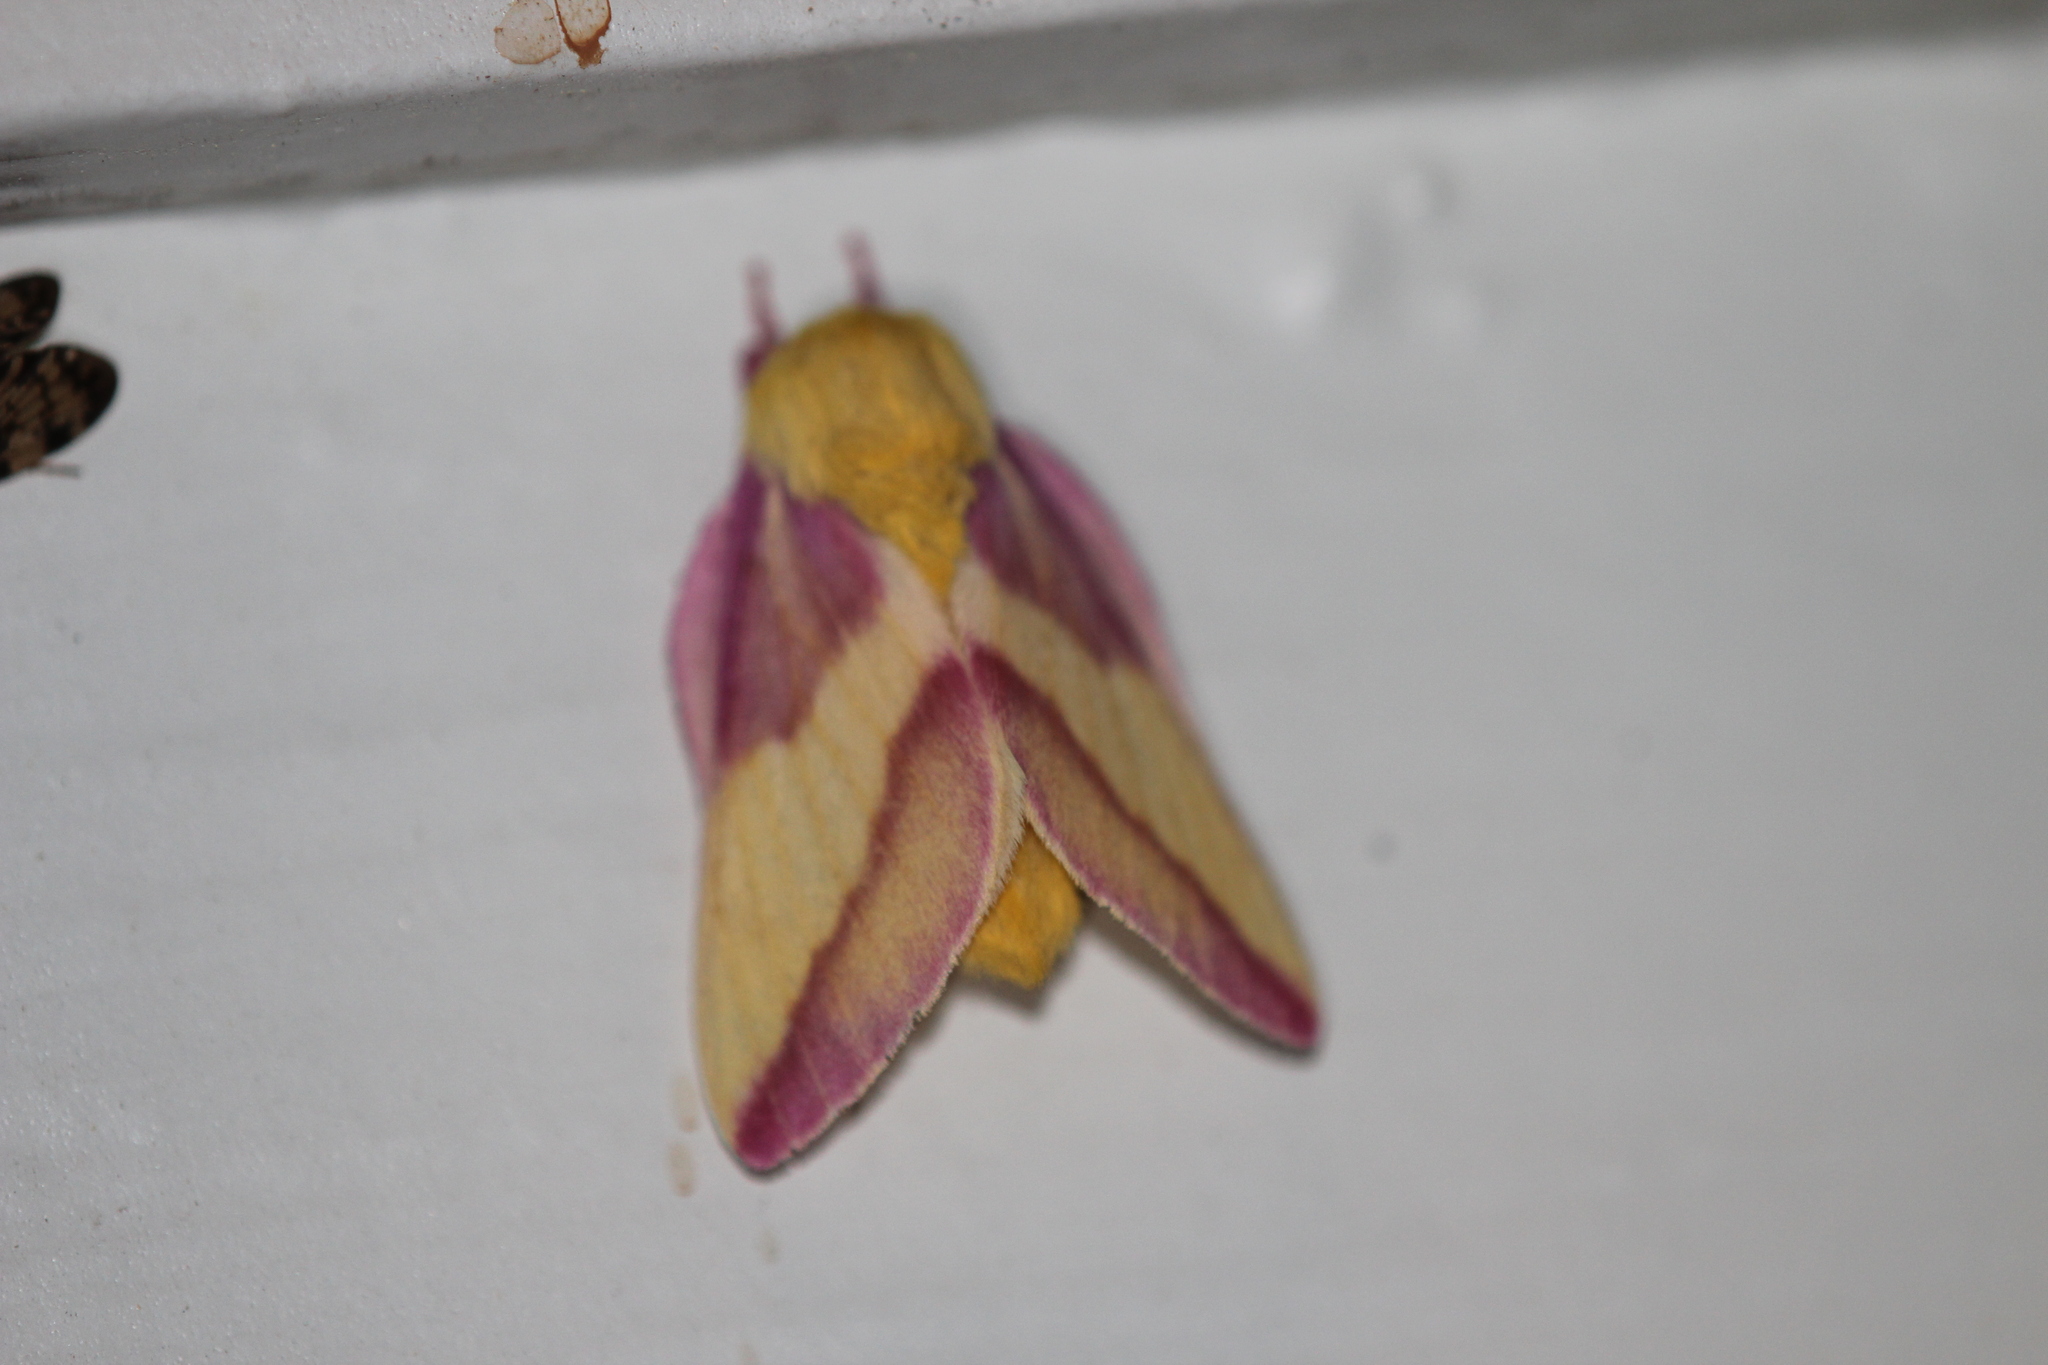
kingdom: Animalia
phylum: Arthropoda
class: Insecta
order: Lepidoptera
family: Saturniidae
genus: Dryocampa
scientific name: Dryocampa rubicunda
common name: Rosy maple moth
